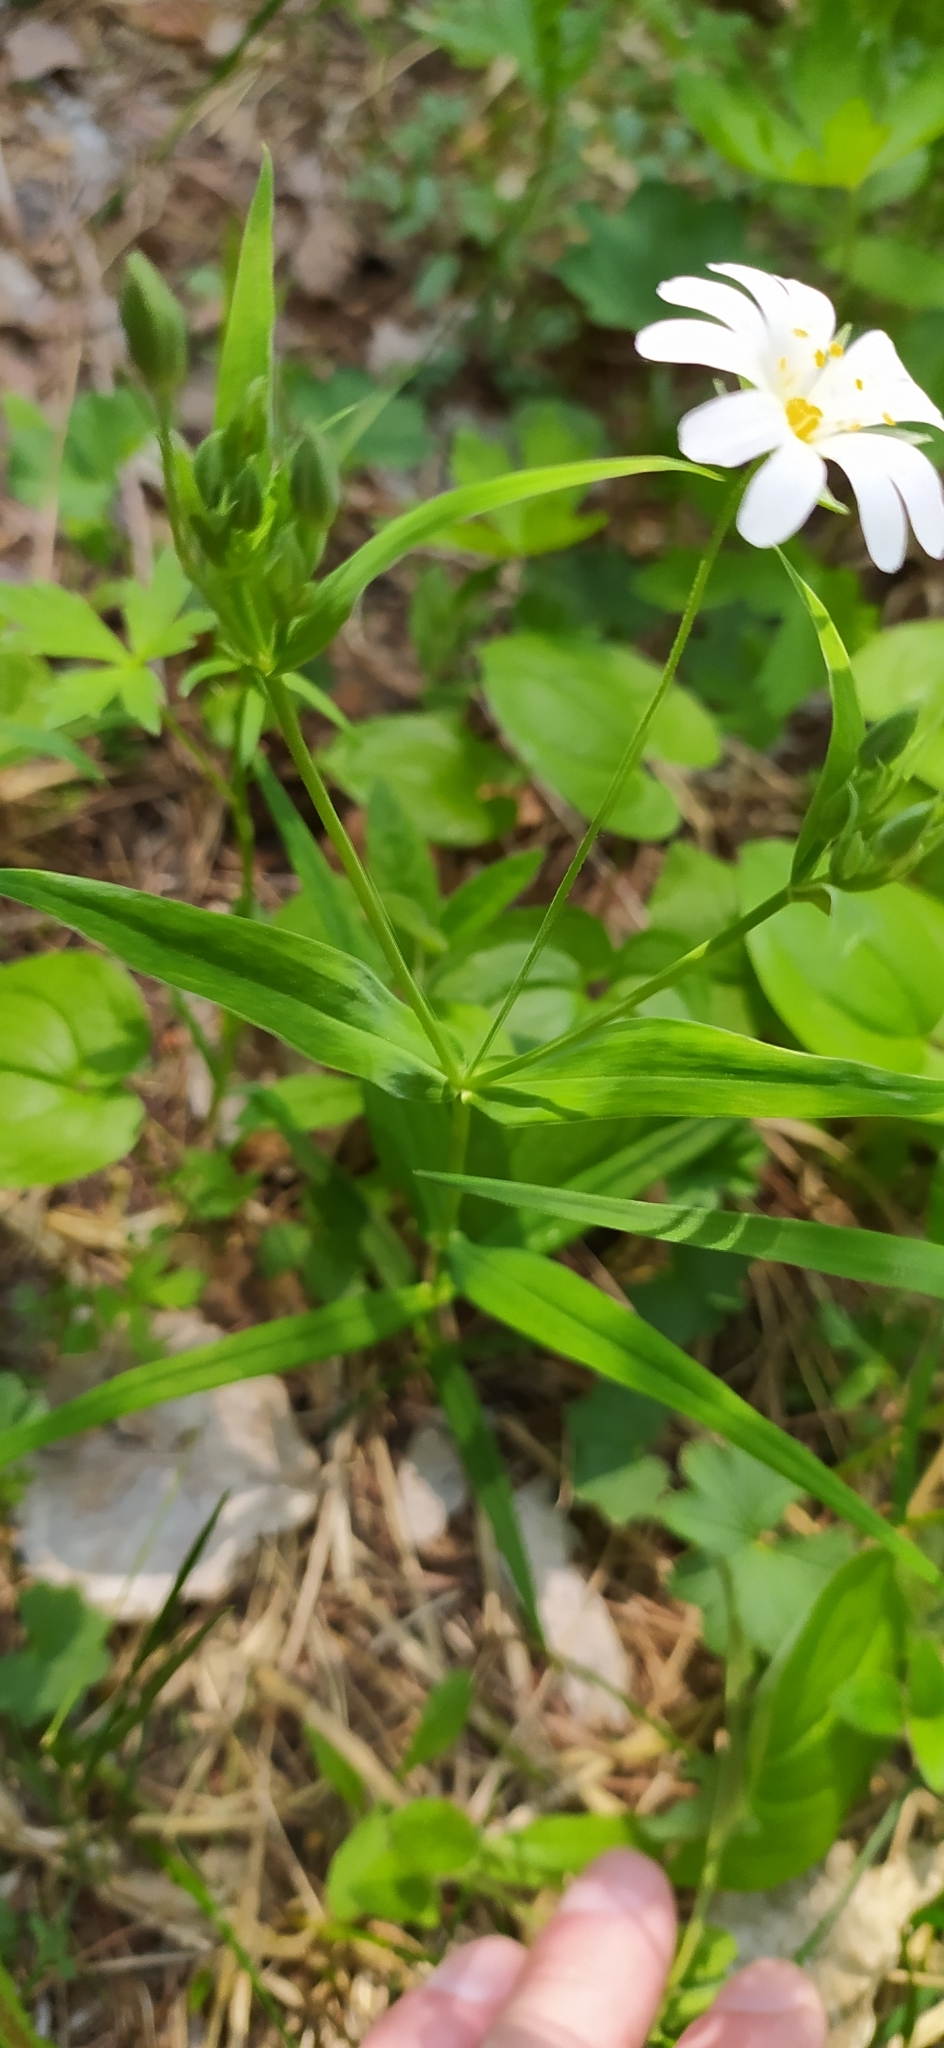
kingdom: Plantae
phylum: Tracheophyta
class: Magnoliopsida
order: Caryophyllales
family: Caryophyllaceae
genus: Rabelera
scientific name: Rabelera holostea
